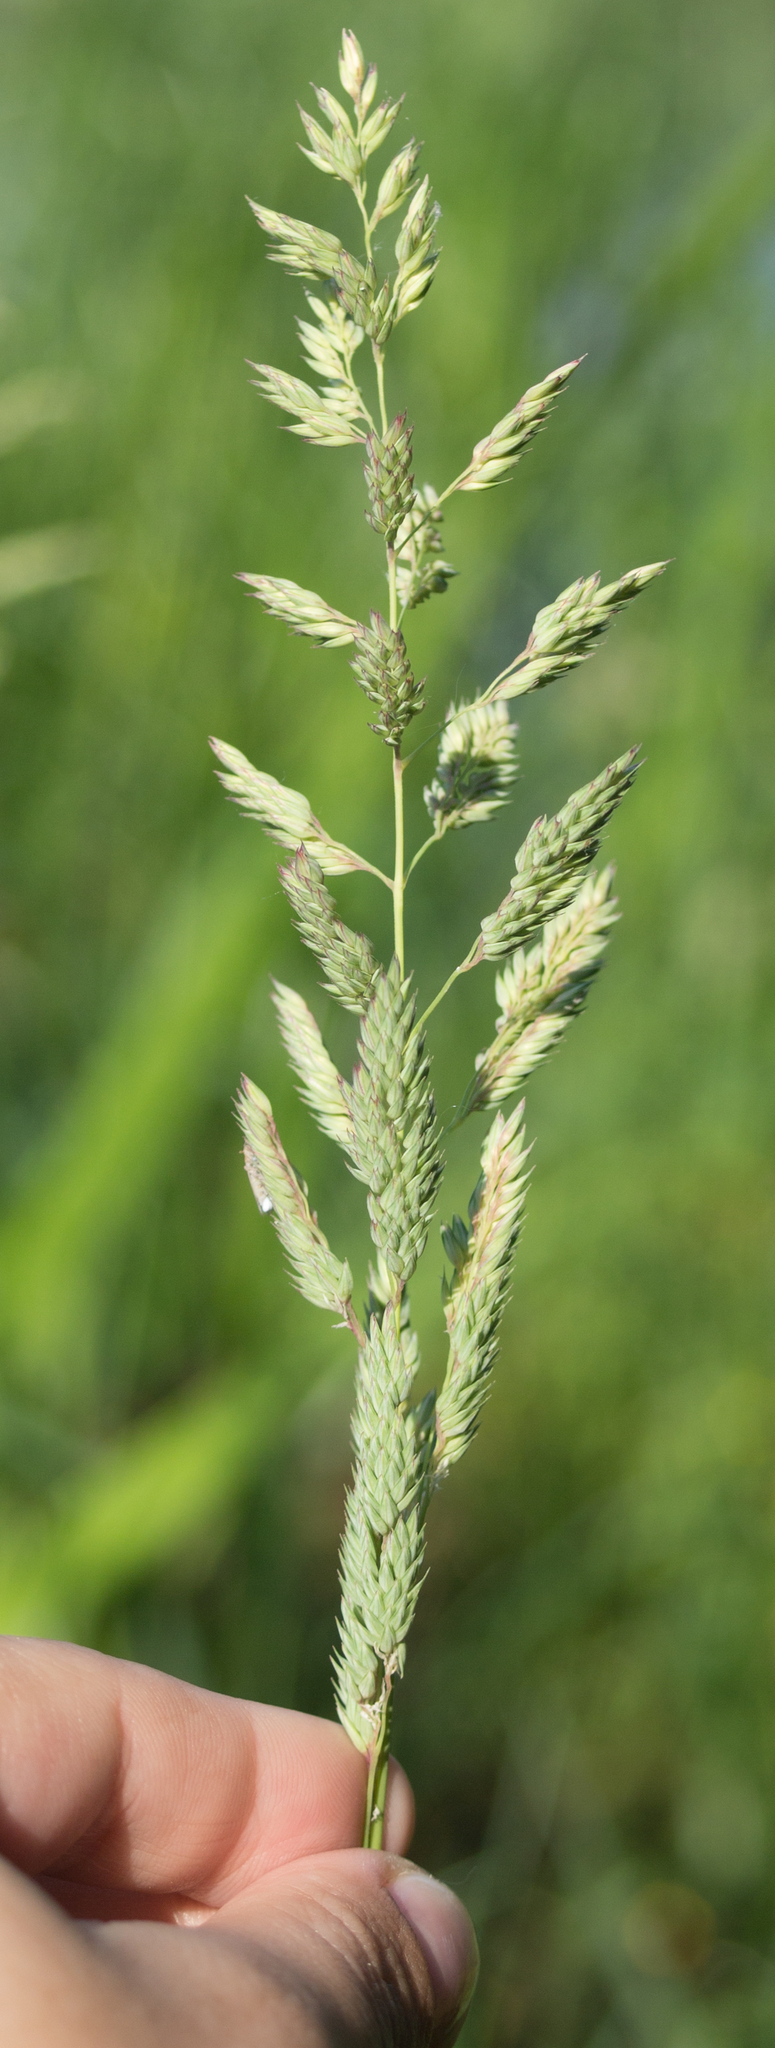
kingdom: Plantae
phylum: Tracheophyta
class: Liliopsida
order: Poales
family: Poaceae
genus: Phalaris
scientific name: Phalaris arundinacea
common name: Reed canary-grass
